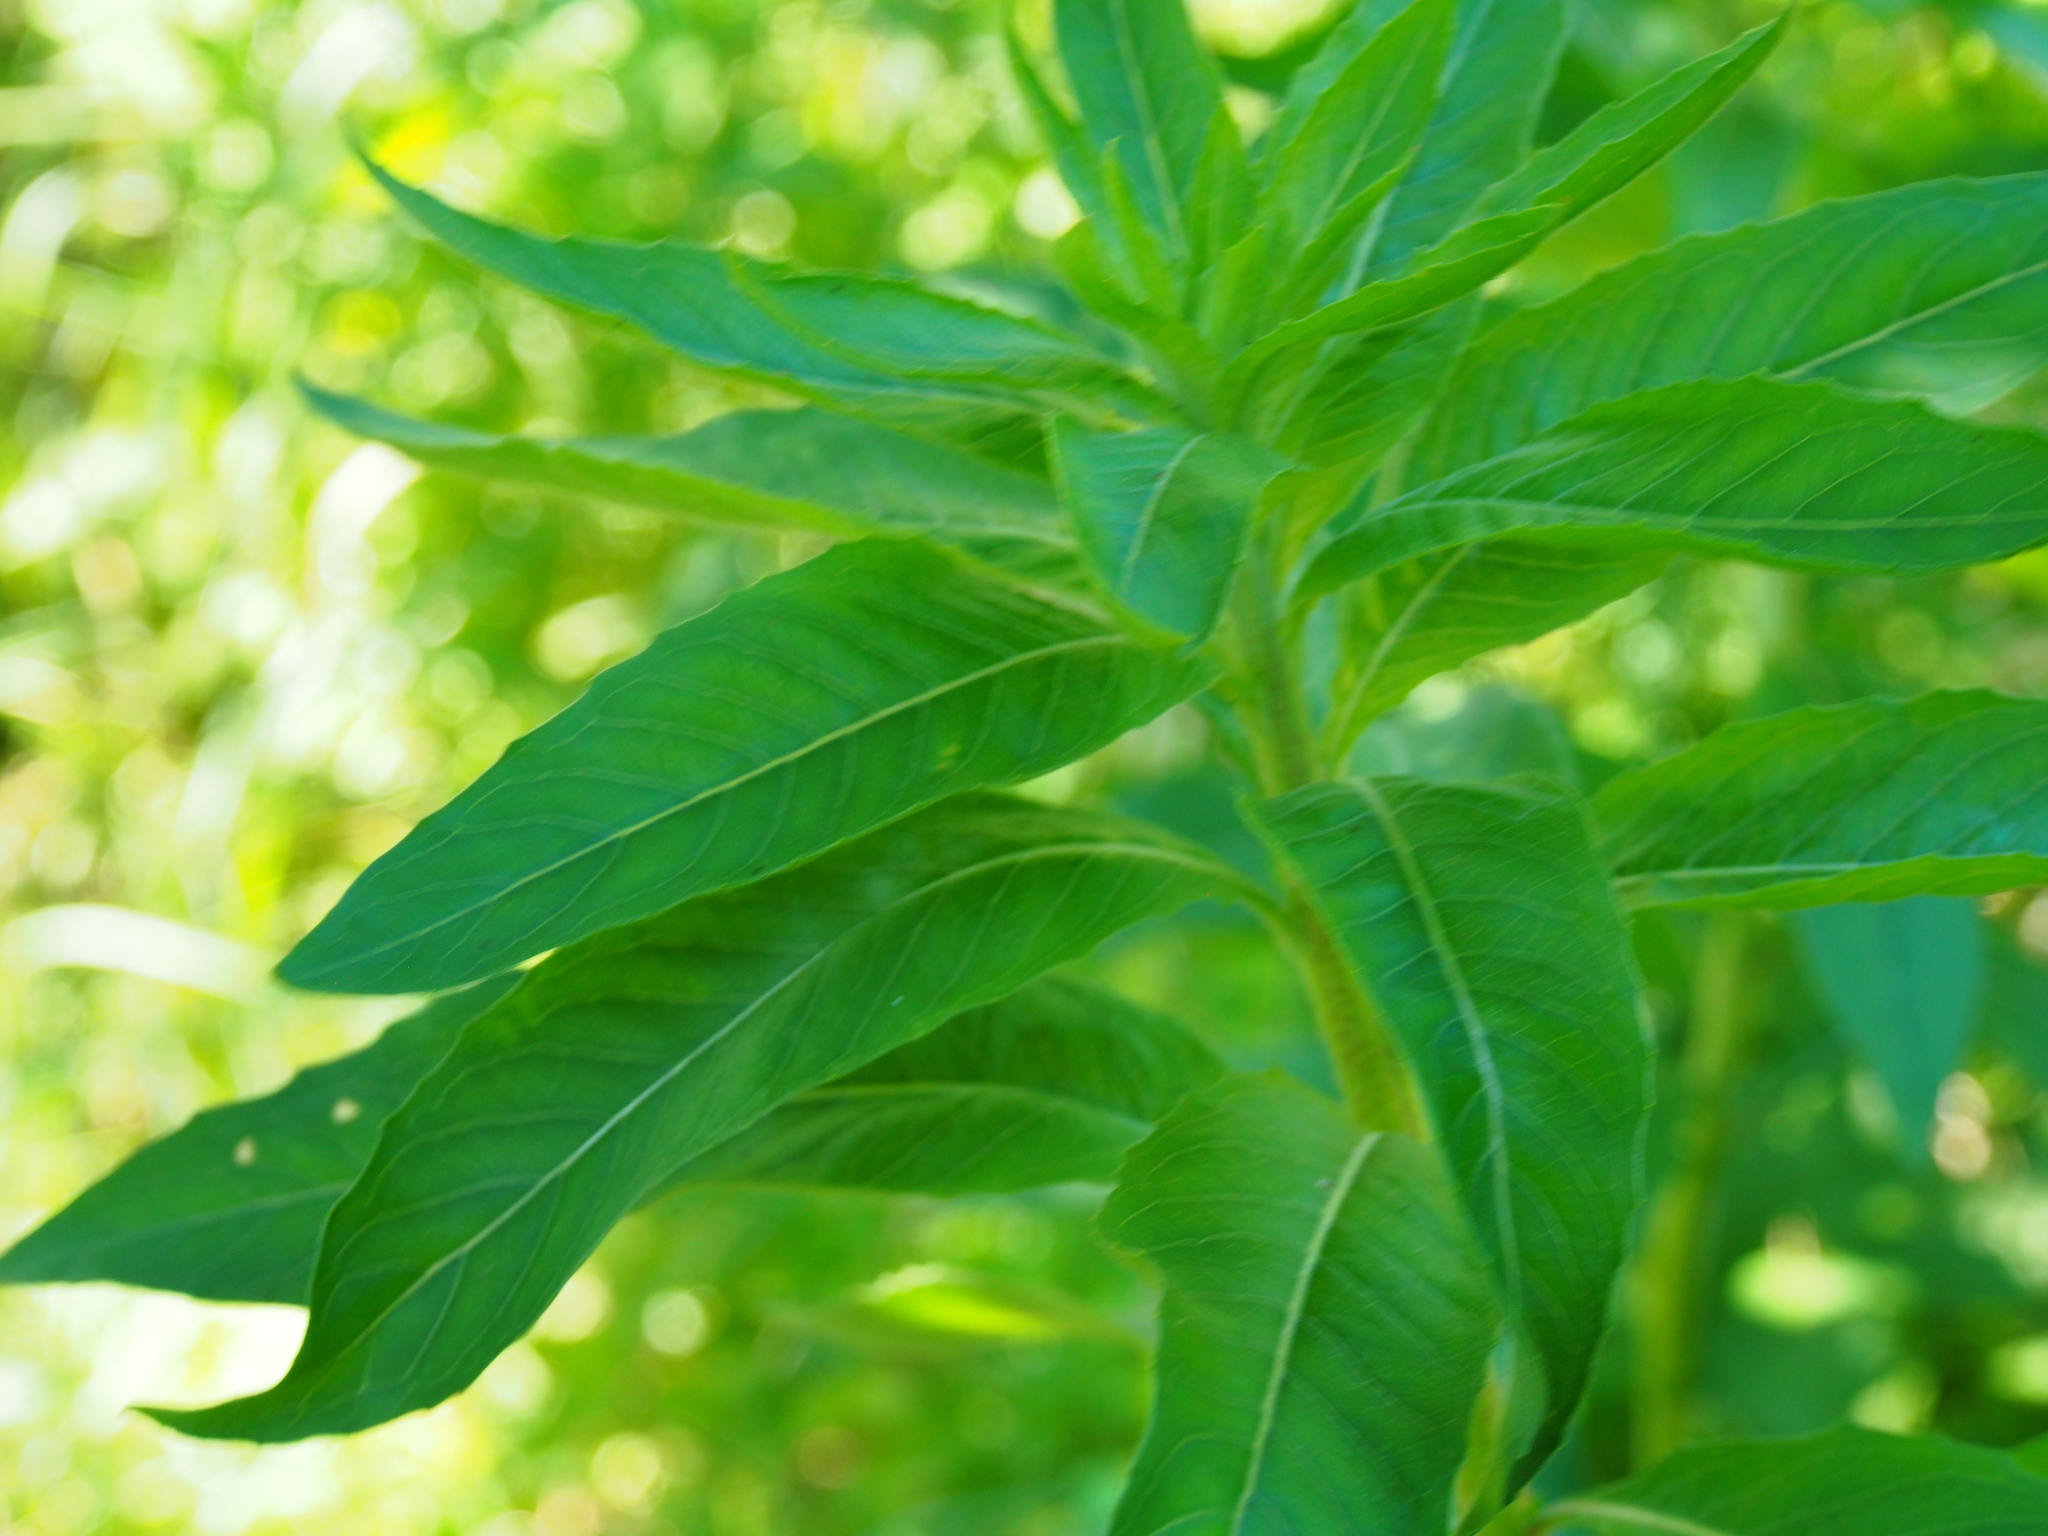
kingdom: Plantae
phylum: Tracheophyta
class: Magnoliopsida
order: Myrtales
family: Onagraceae
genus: Oenothera
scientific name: Oenothera biennis
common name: Common evening-primrose
